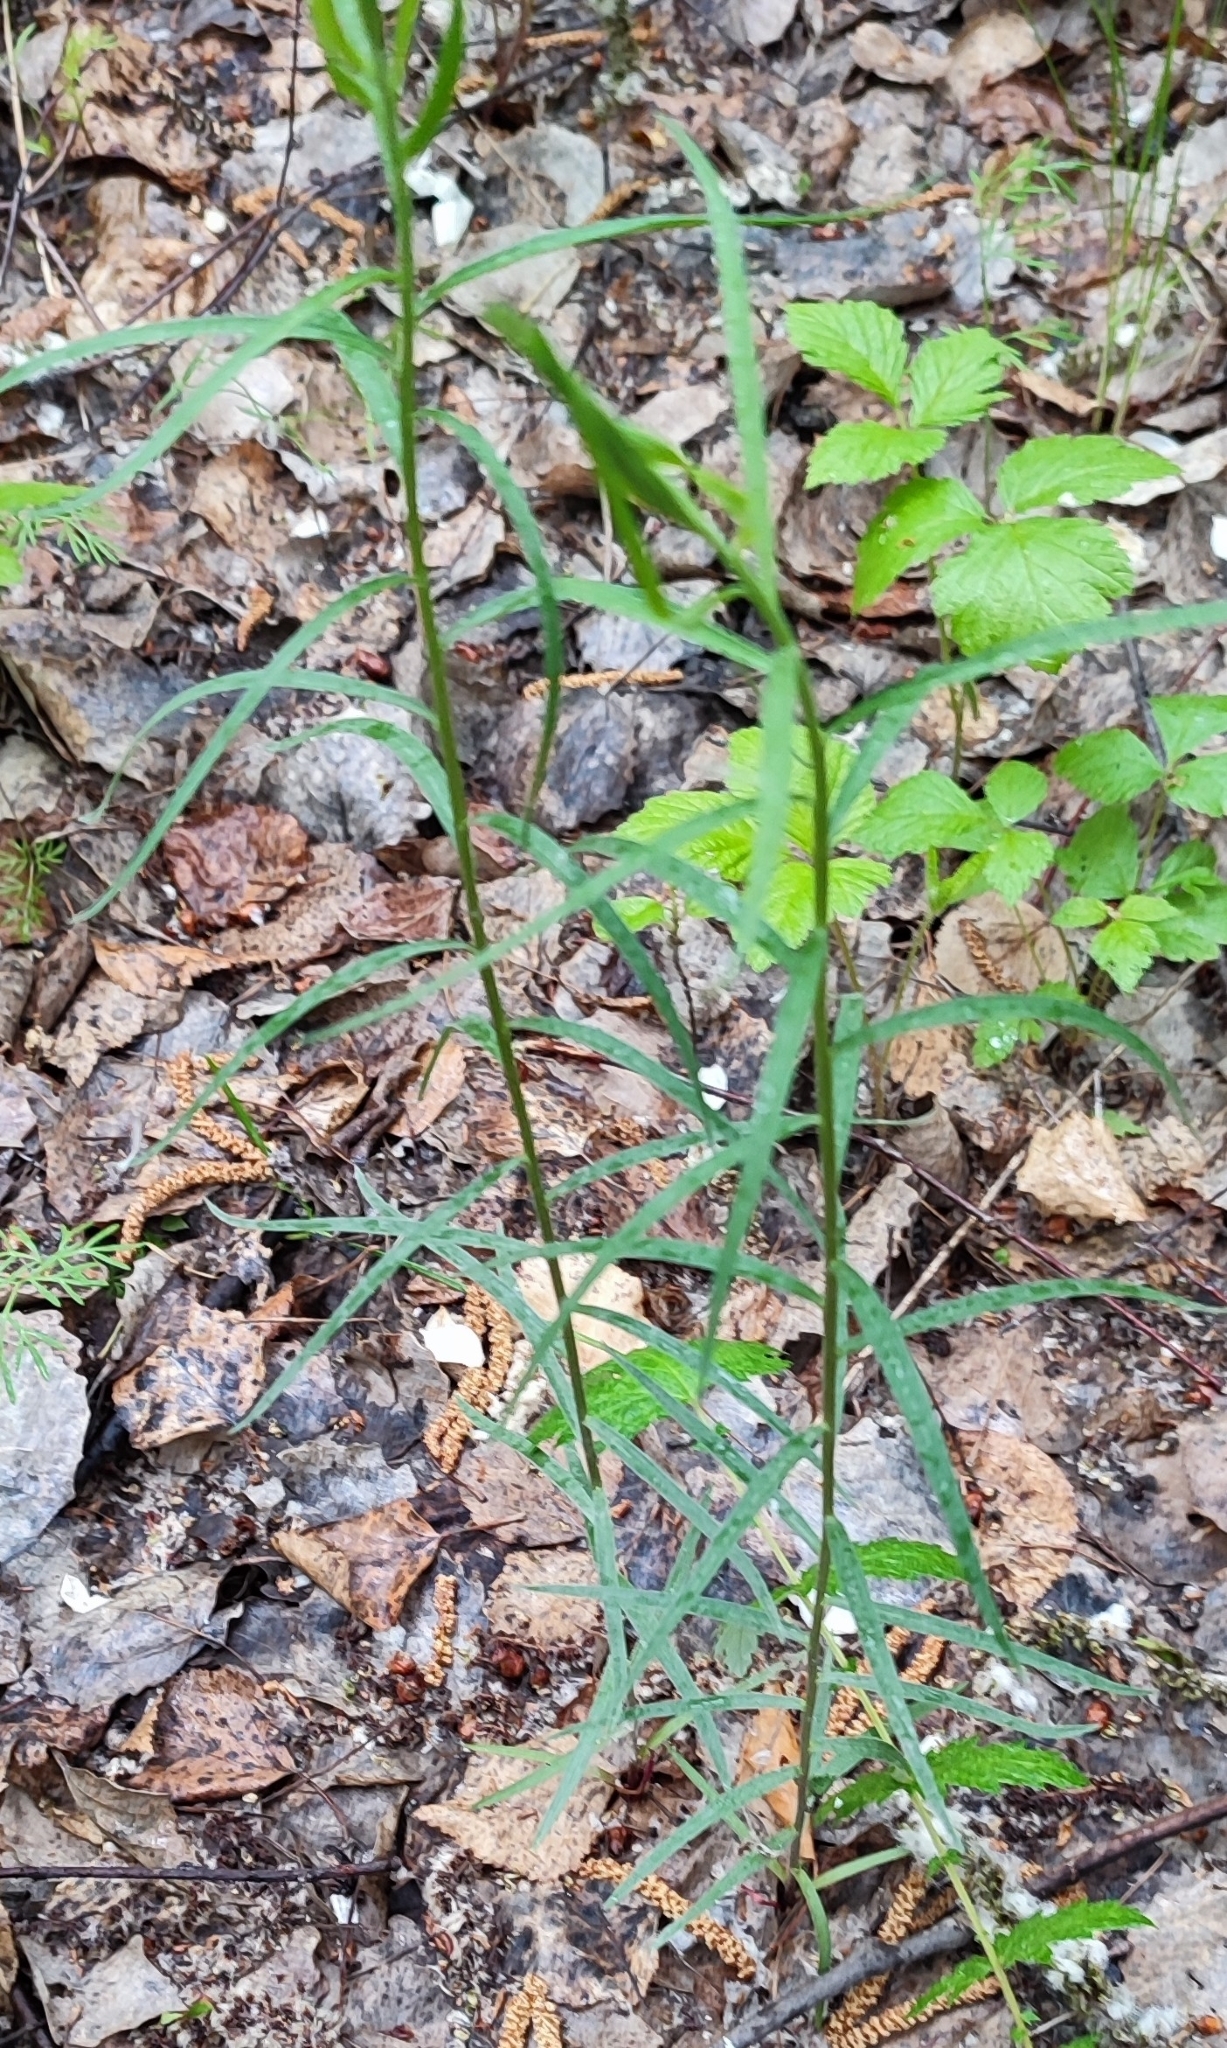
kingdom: Plantae
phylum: Tracheophyta
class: Magnoliopsida
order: Asterales
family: Asteraceae
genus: Hieracium
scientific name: Hieracium umbellatum
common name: Northern hawkweed
